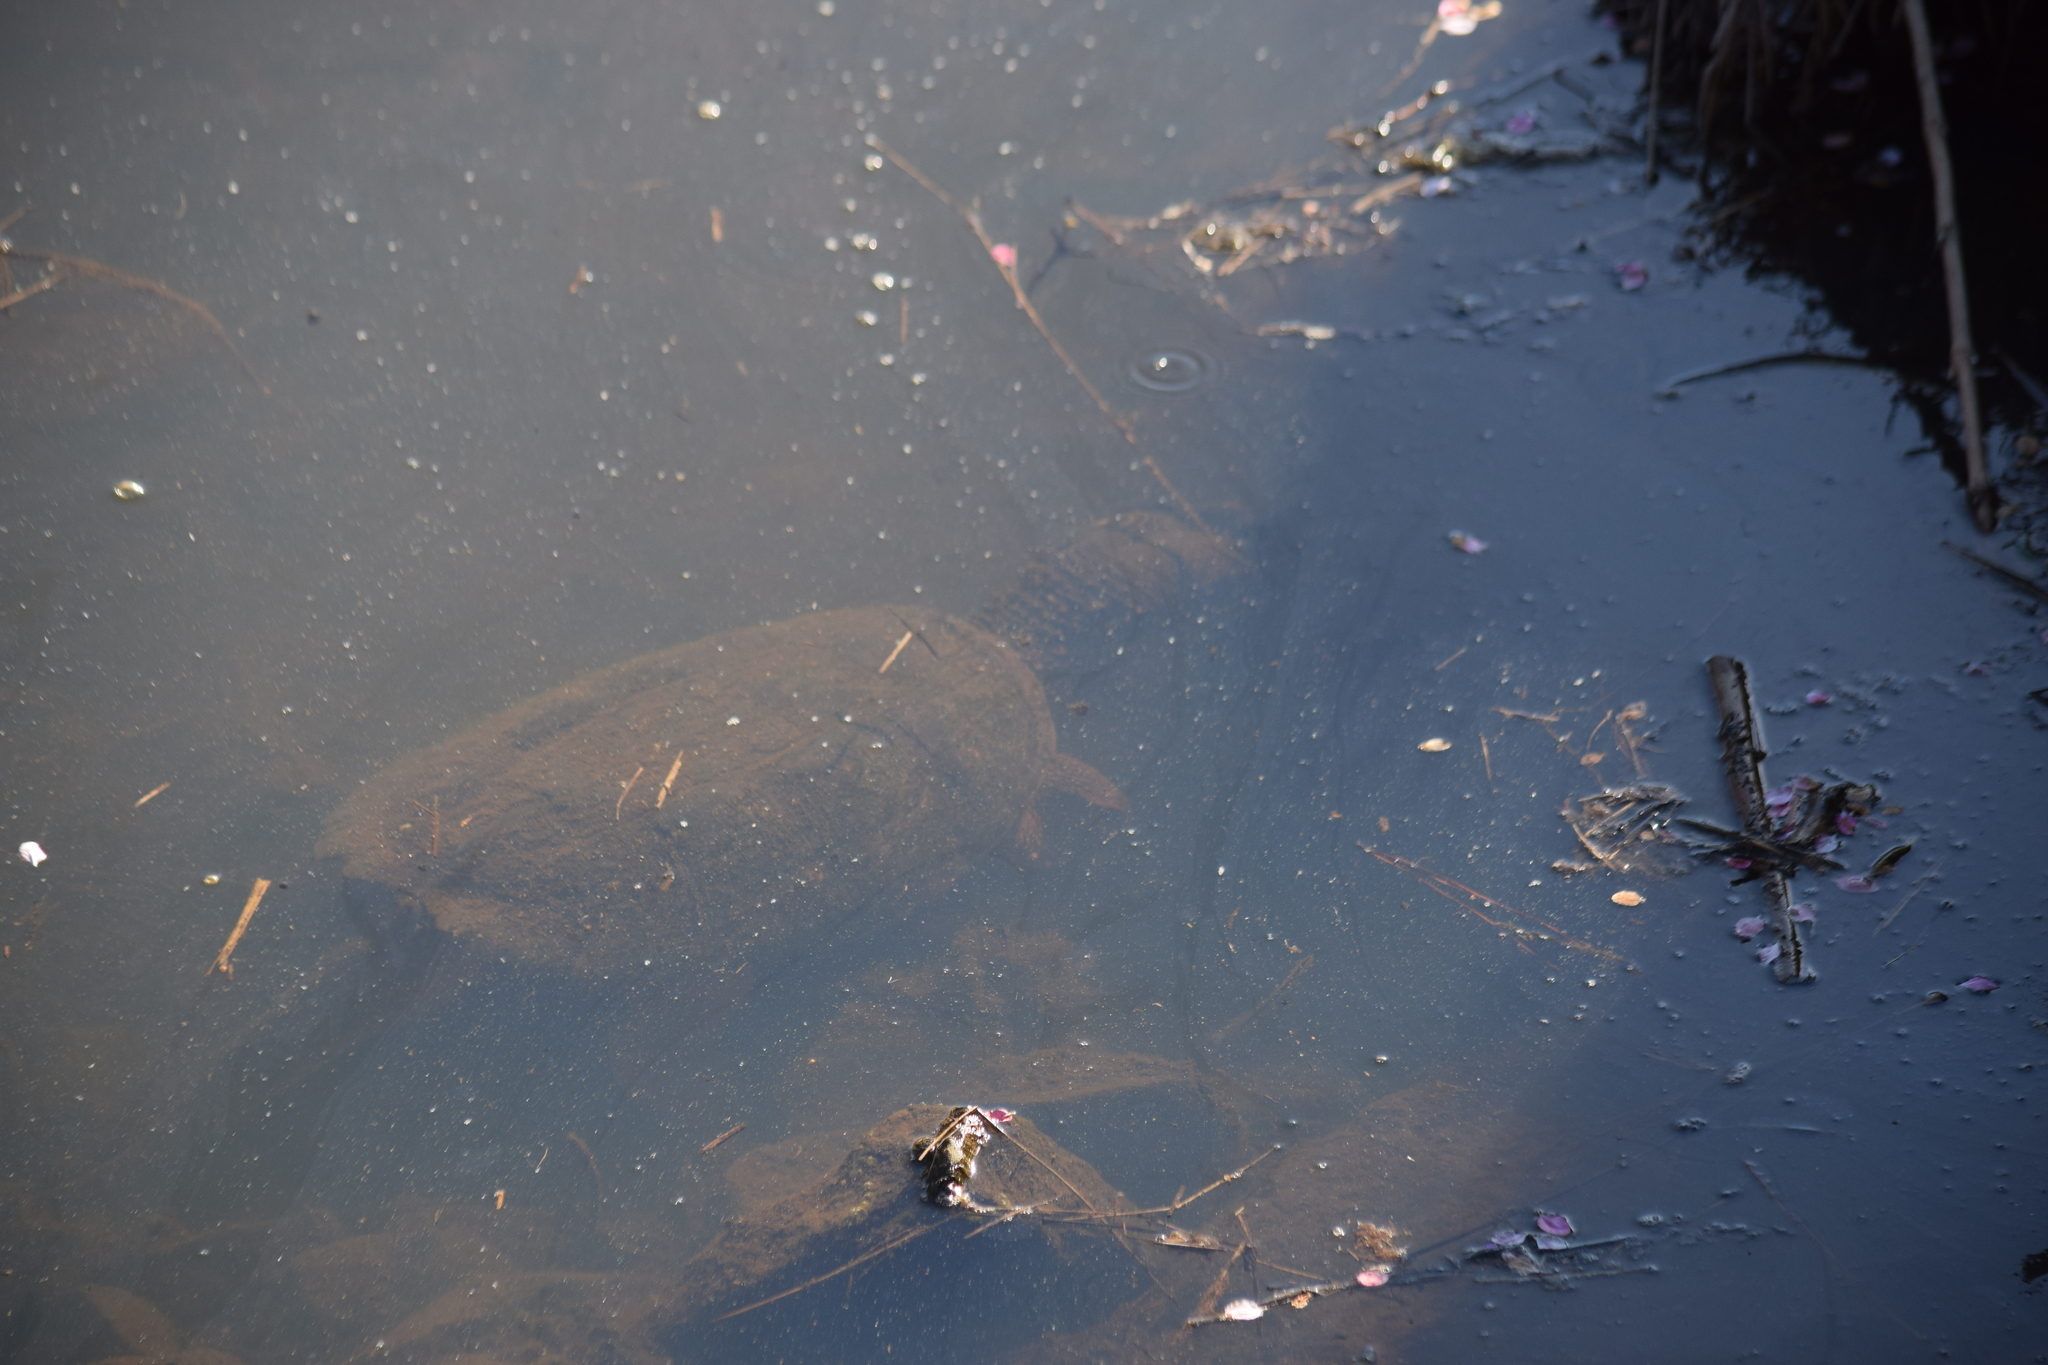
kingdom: Animalia
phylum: Chordata
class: Testudines
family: Chelydridae
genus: Chelydra
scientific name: Chelydra serpentina
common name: Common snapping turtle
